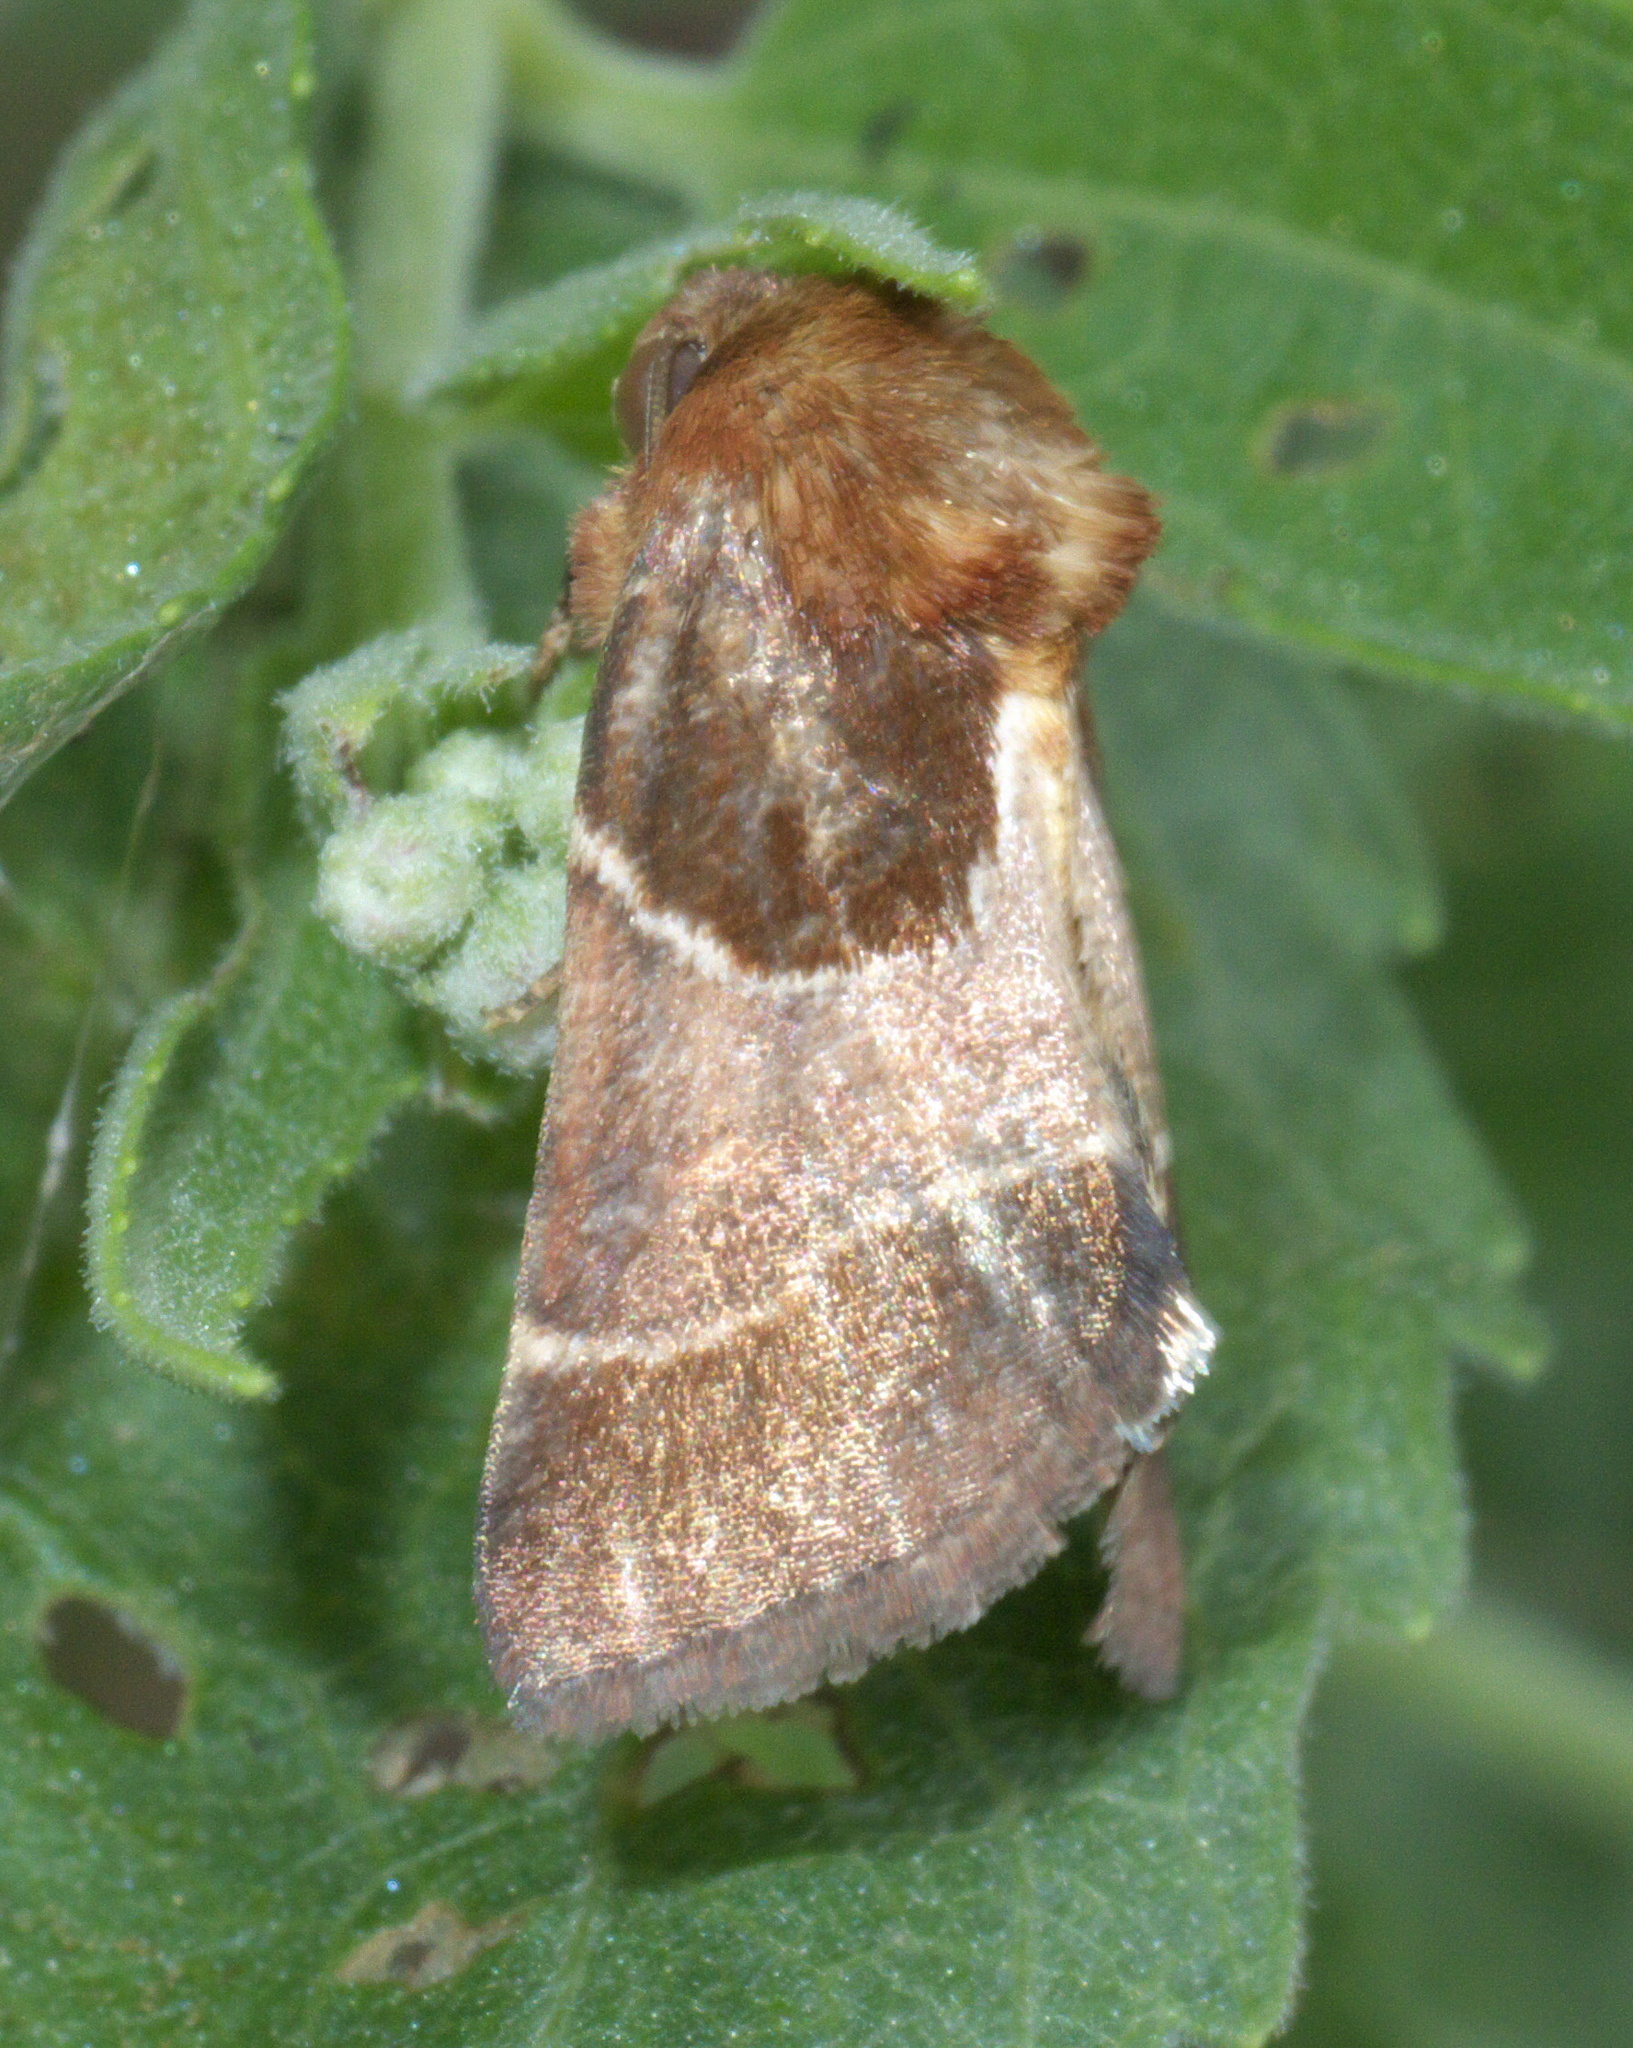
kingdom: Animalia
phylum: Arthropoda
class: Insecta
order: Lepidoptera
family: Noctuidae
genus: Schinia
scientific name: Schinia arcigera
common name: Arcigera flower moth
